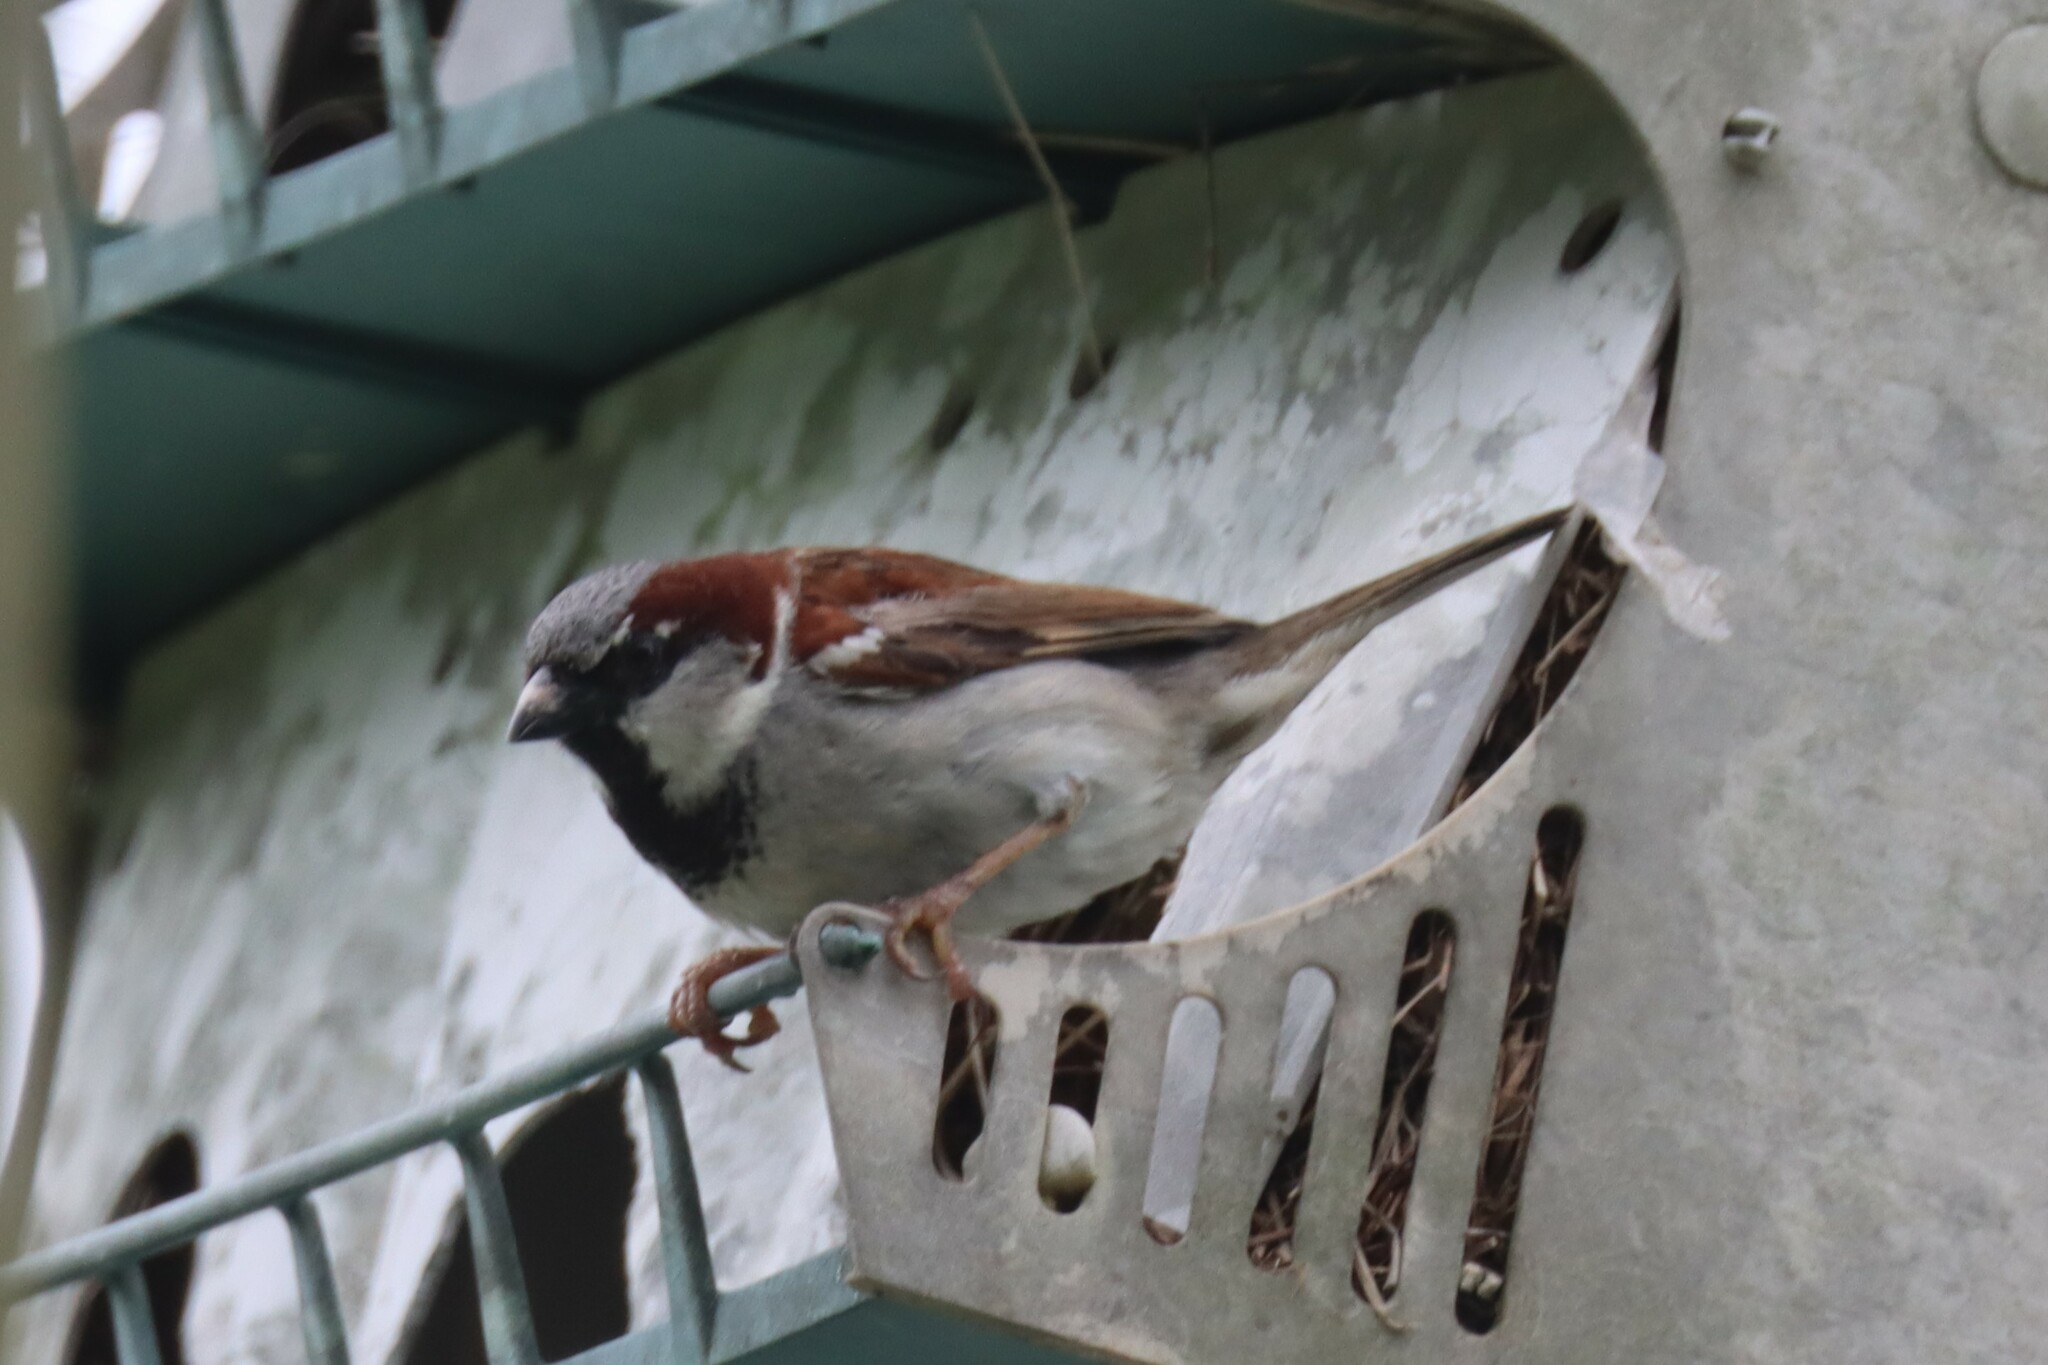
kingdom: Animalia
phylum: Chordata
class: Aves
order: Passeriformes
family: Passeridae
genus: Passer
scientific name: Passer domesticus
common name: House sparrow
